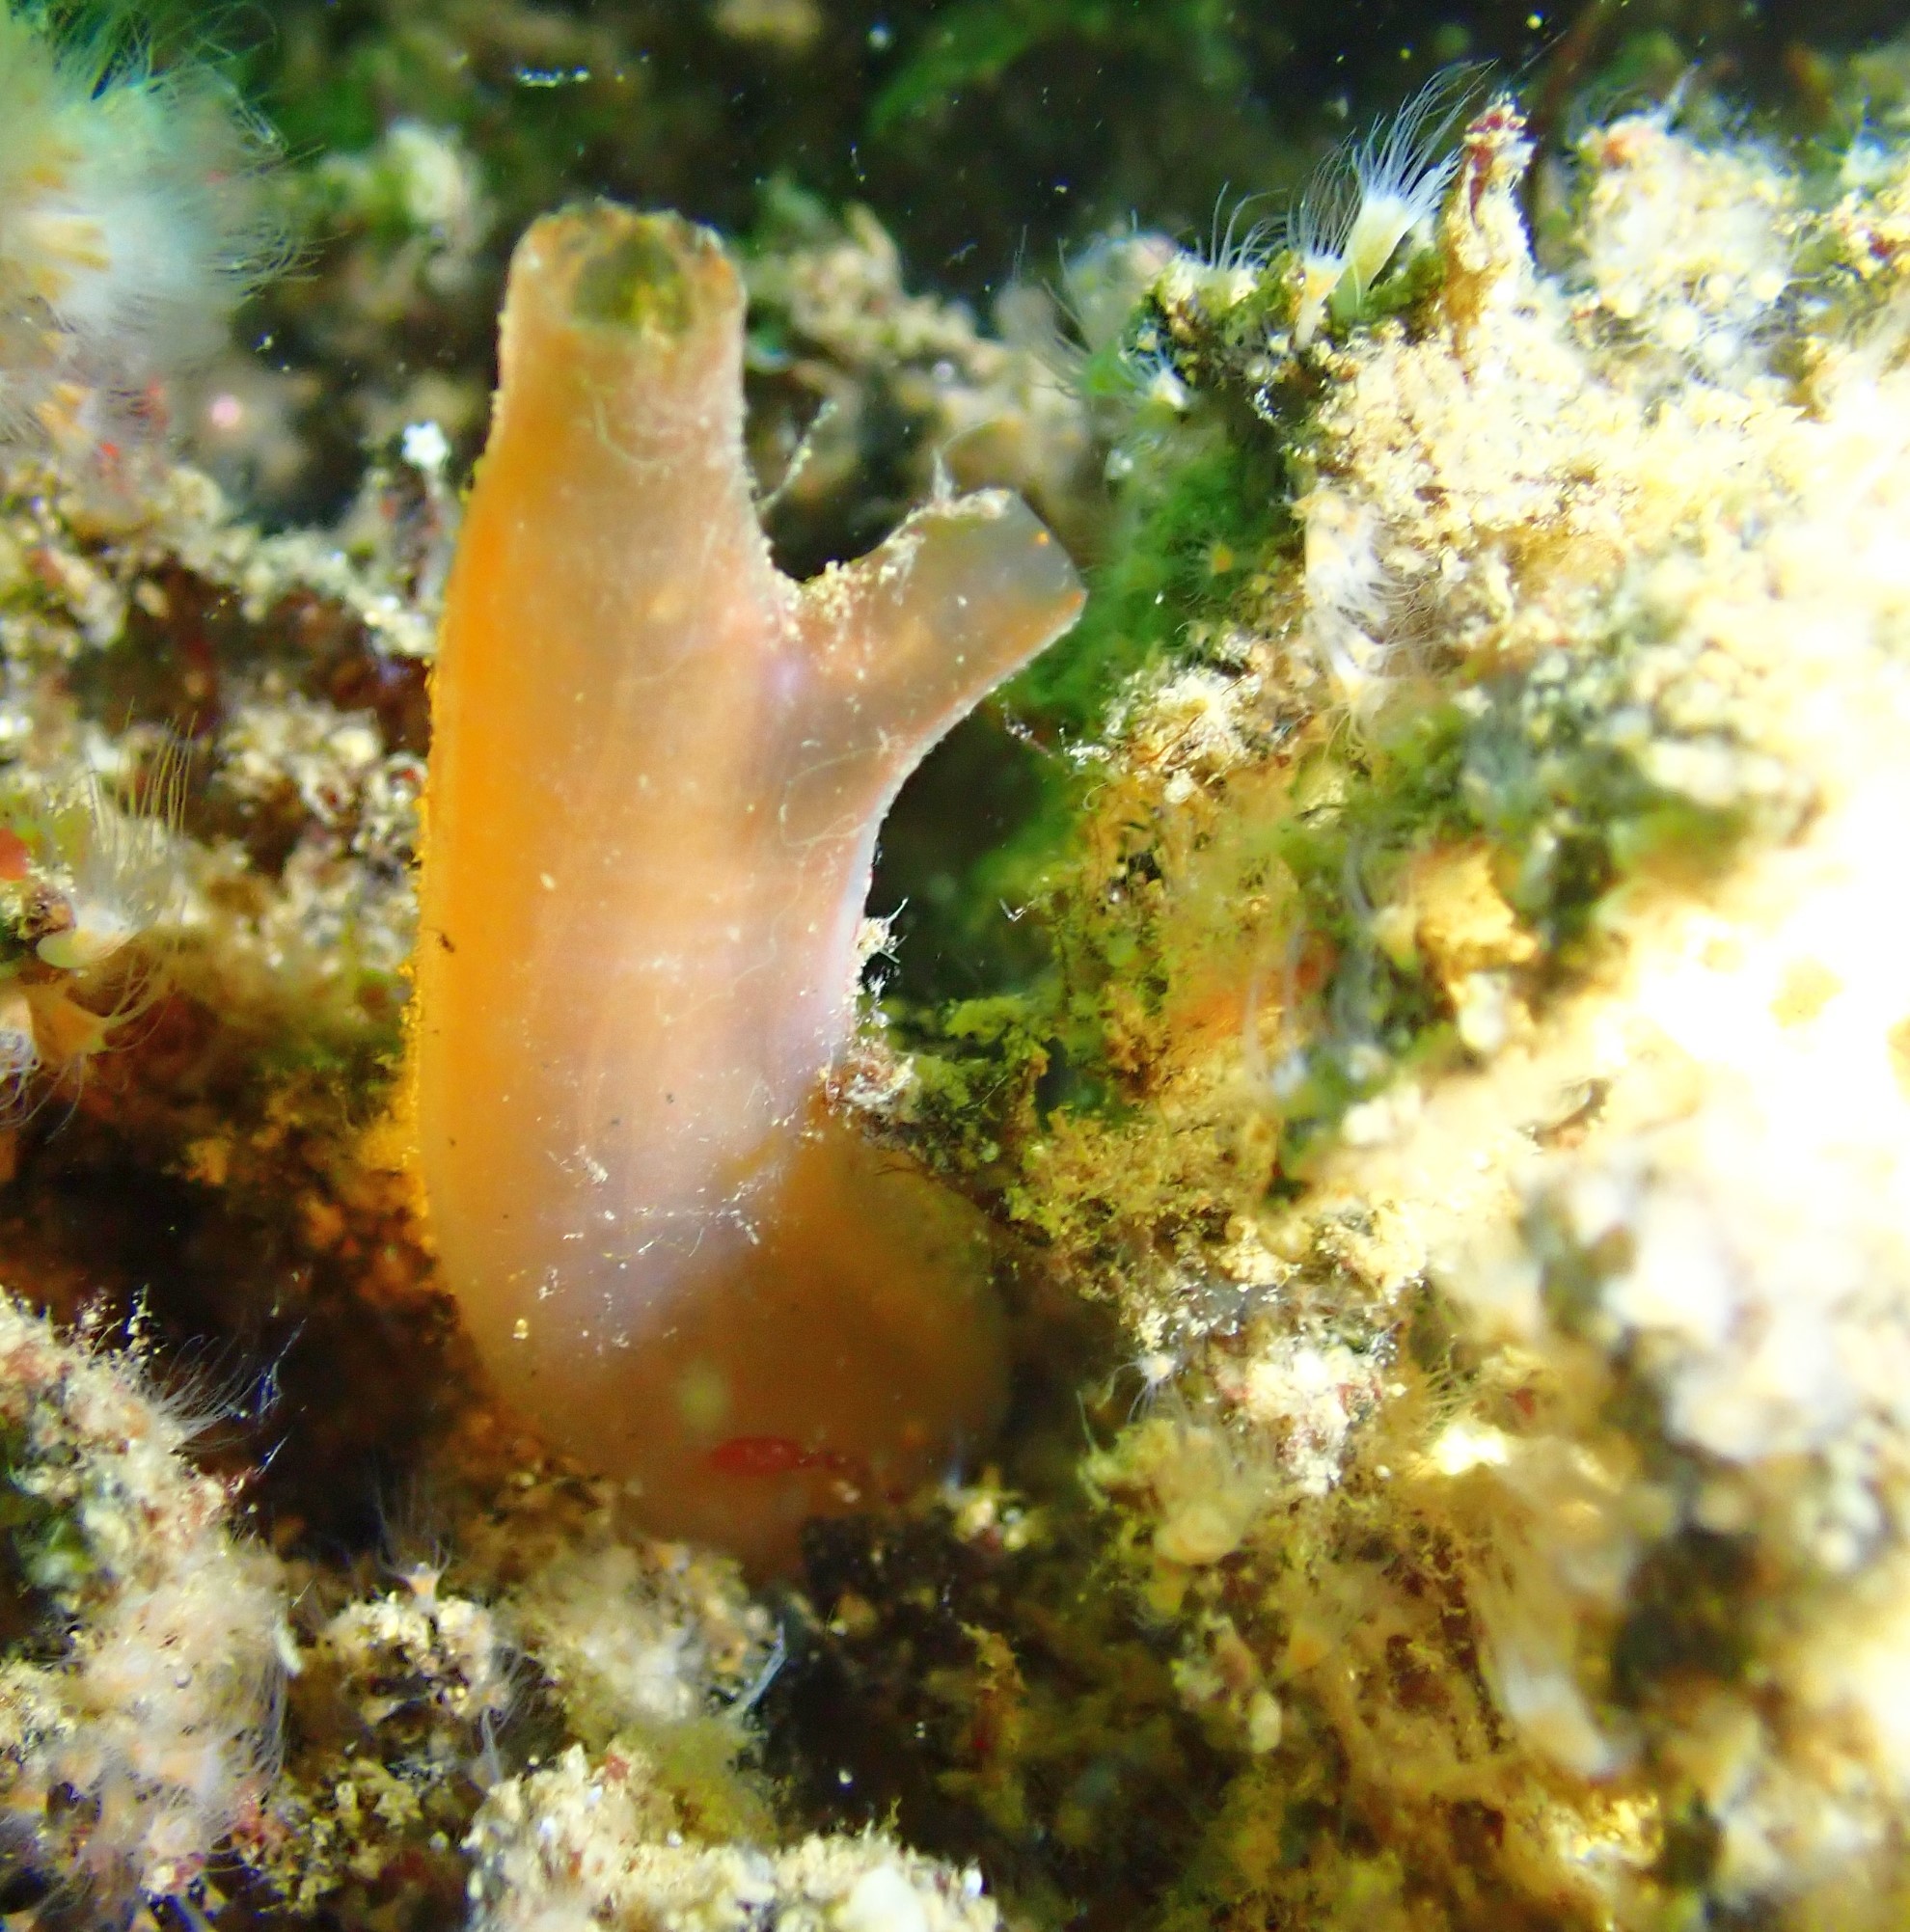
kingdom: Animalia
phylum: Chordata
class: Ascidiacea
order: Phlebobranchia
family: Cionidae
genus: Ciona
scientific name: Ciona intestinalis
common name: Vase tunicate
